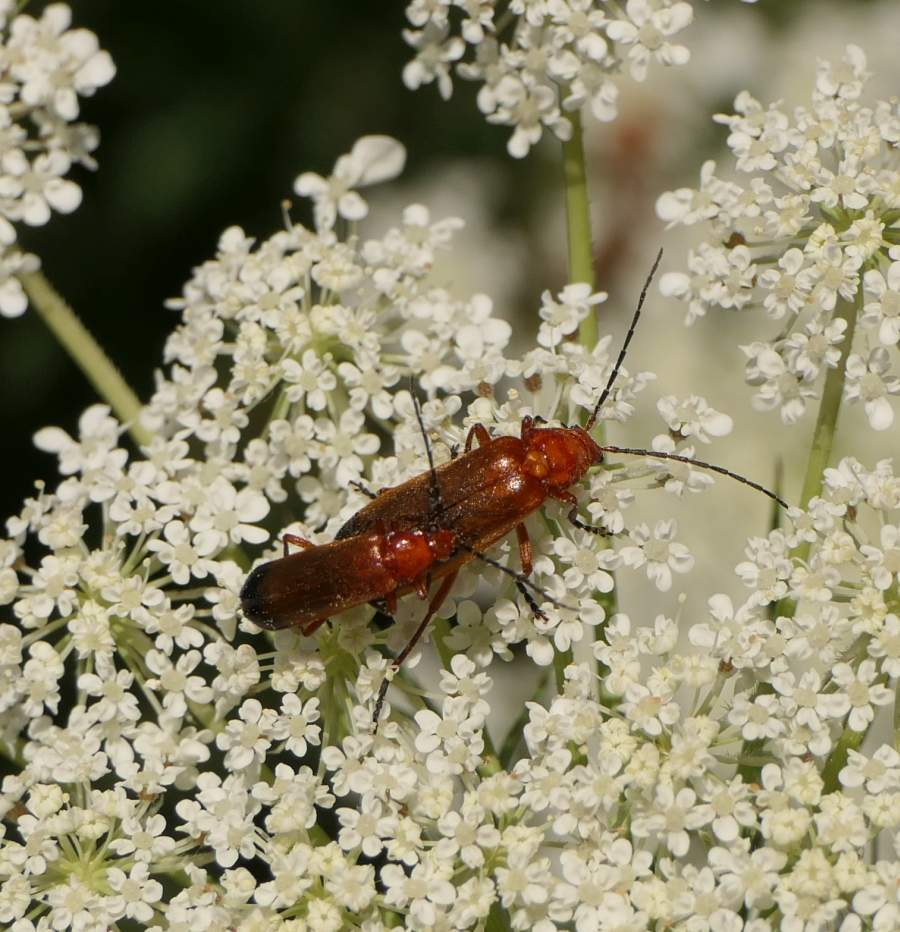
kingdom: Animalia
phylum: Arthropoda
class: Insecta
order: Coleoptera
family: Cantharidae
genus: Rhagonycha
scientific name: Rhagonycha fulva
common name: Common red soldier beetle
